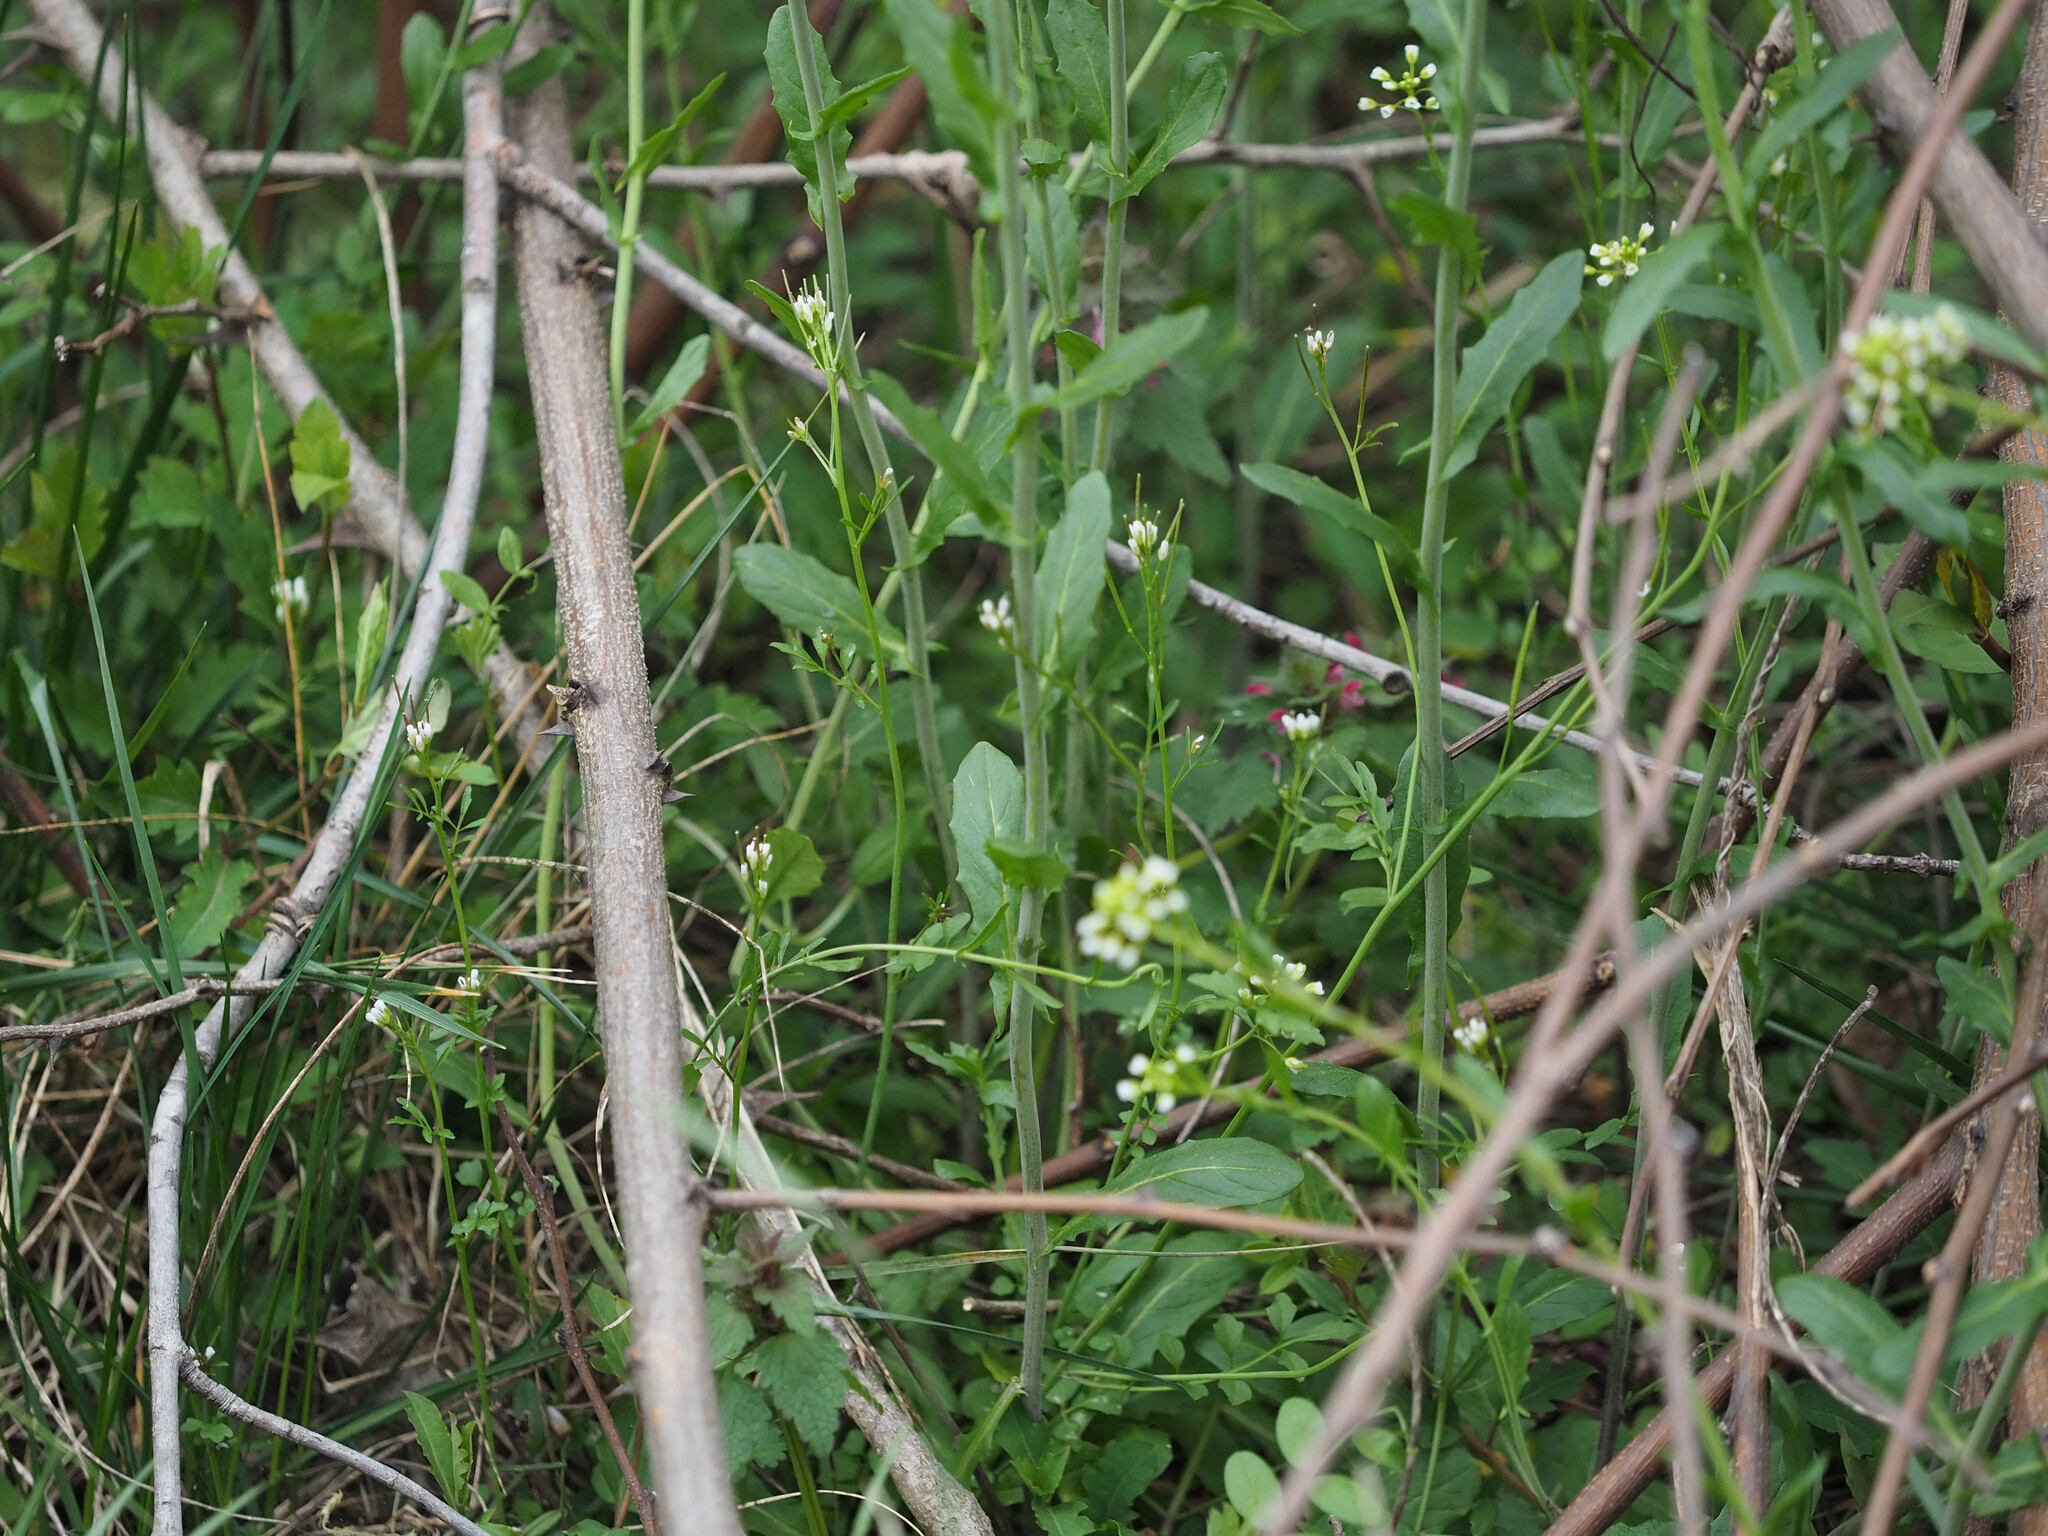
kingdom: Plantae
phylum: Tracheophyta
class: Magnoliopsida
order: Brassicales
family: Brassicaceae
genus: Mummenhoffia
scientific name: Mummenhoffia alliacea
